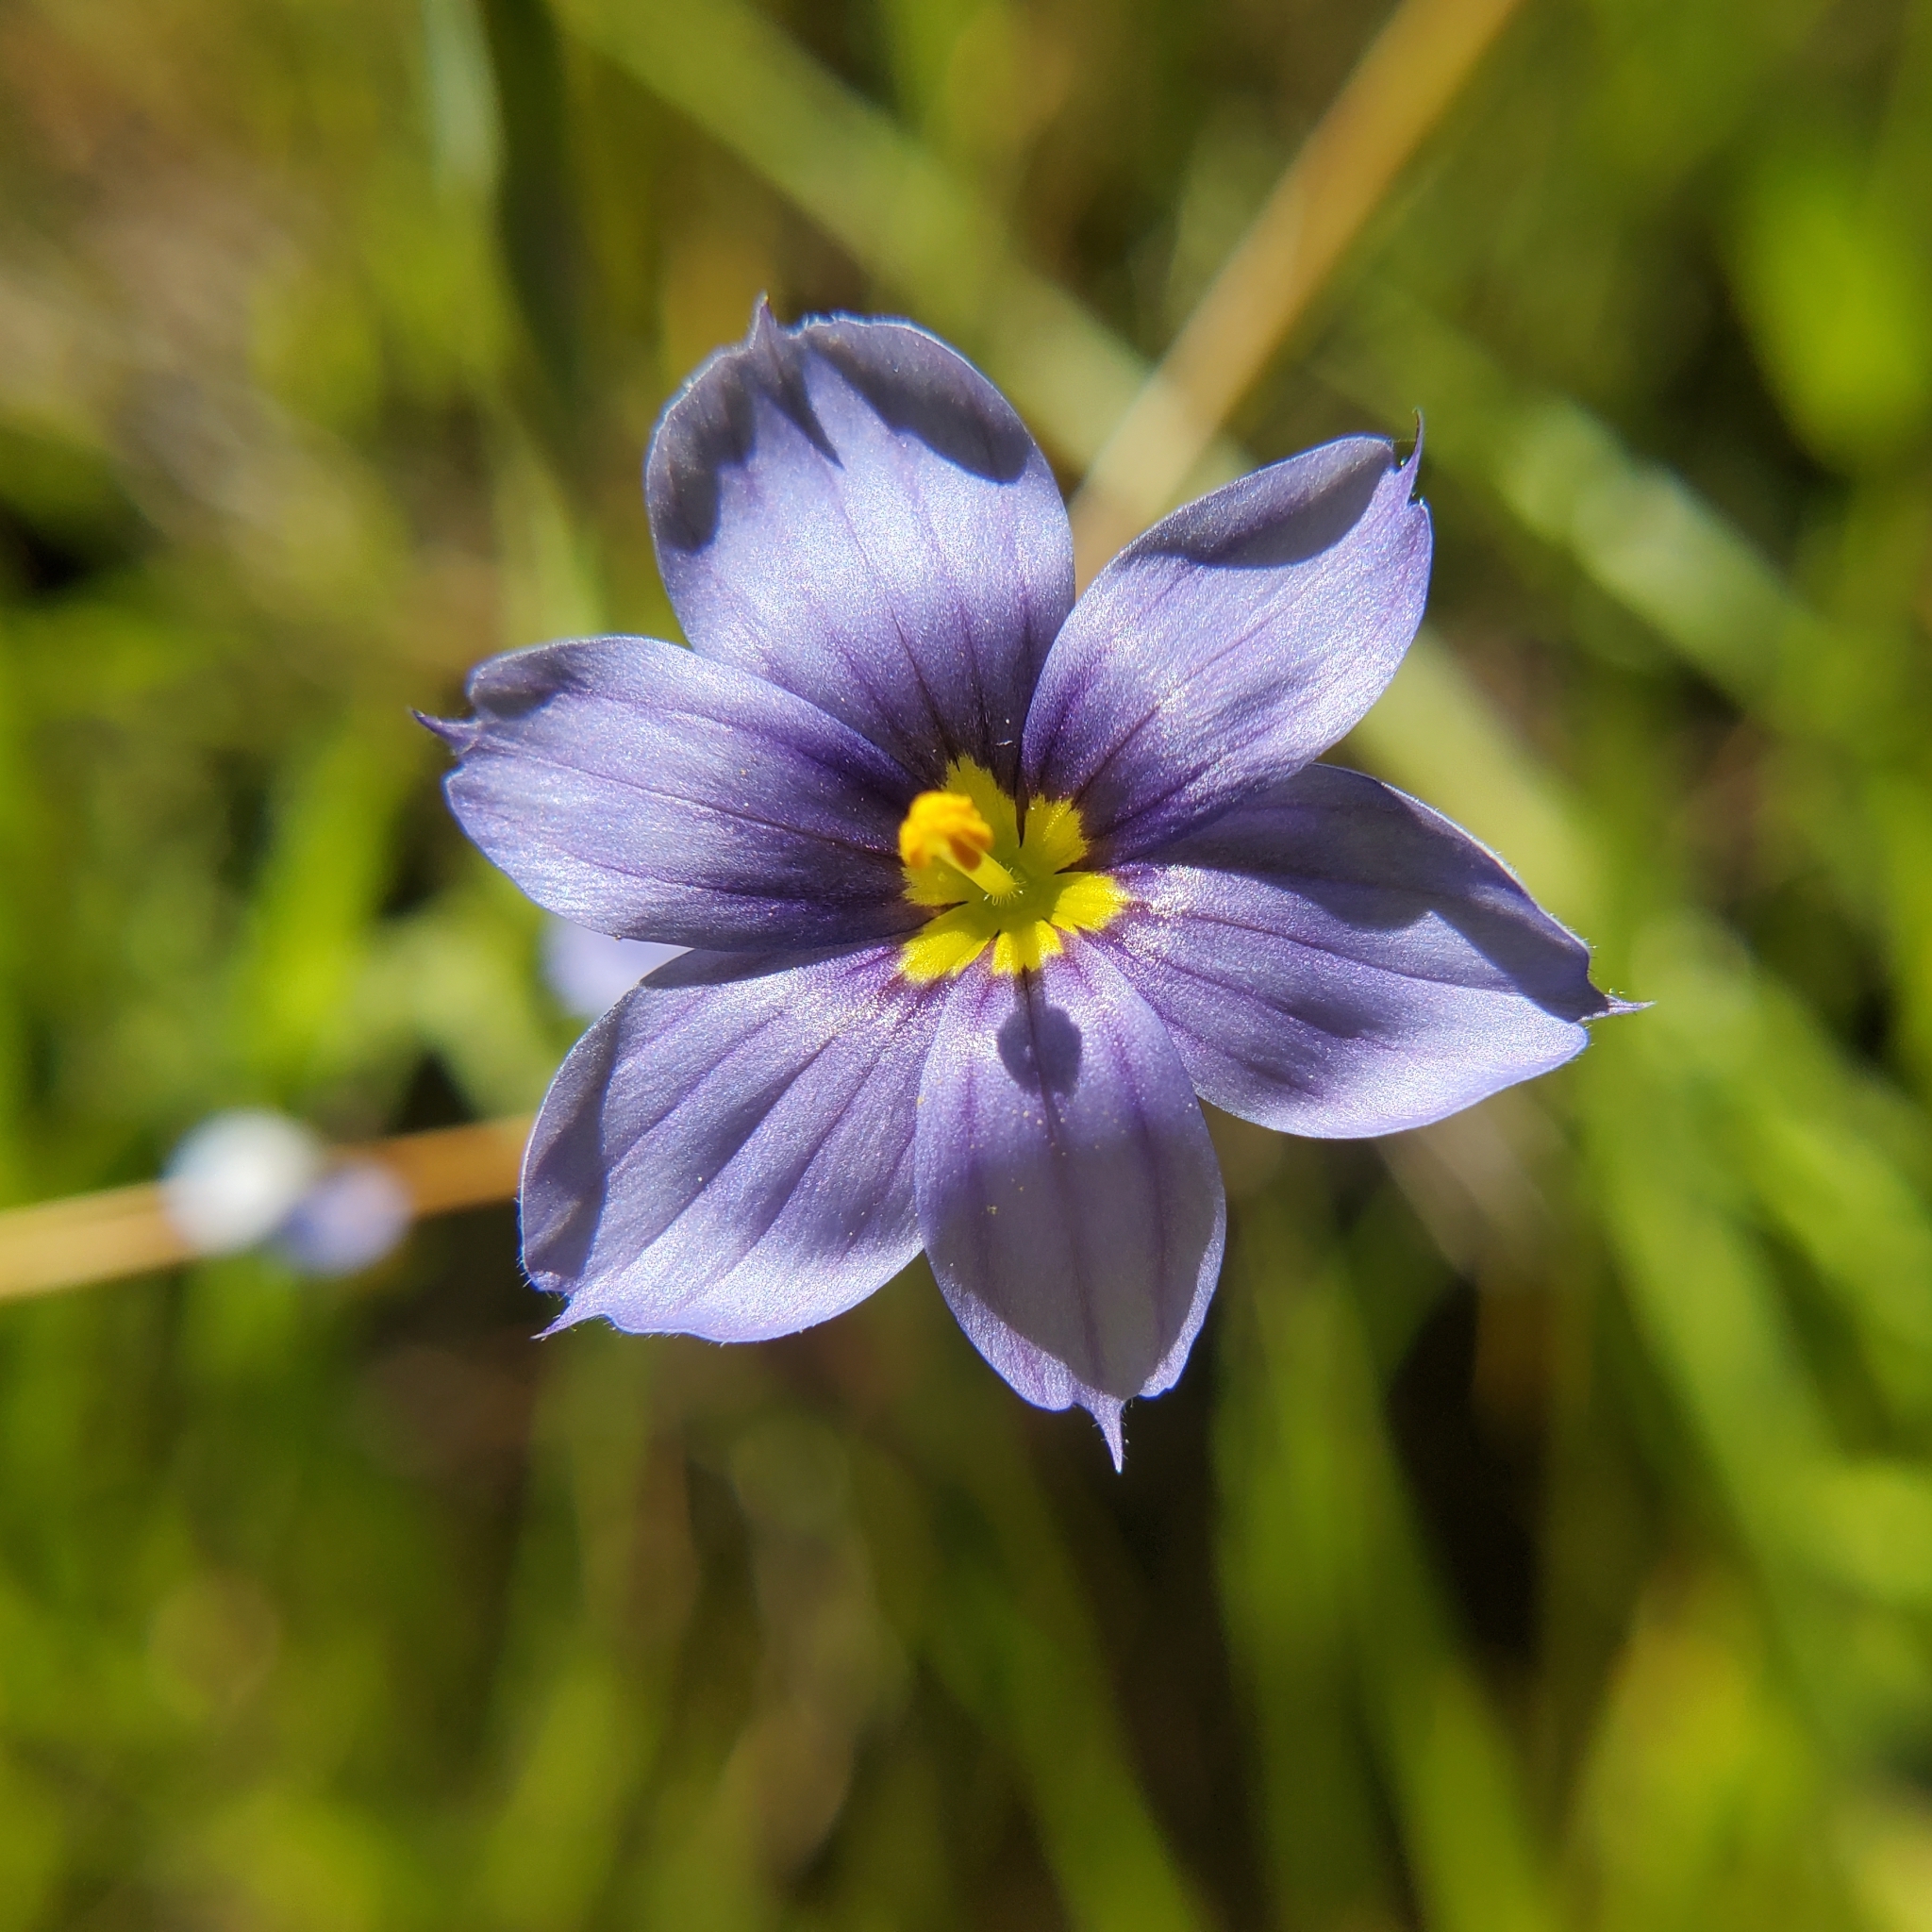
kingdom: Plantae
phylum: Tracheophyta
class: Liliopsida
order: Asparagales
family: Iridaceae
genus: Sisyrinchium
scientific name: Sisyrinchium bellum
